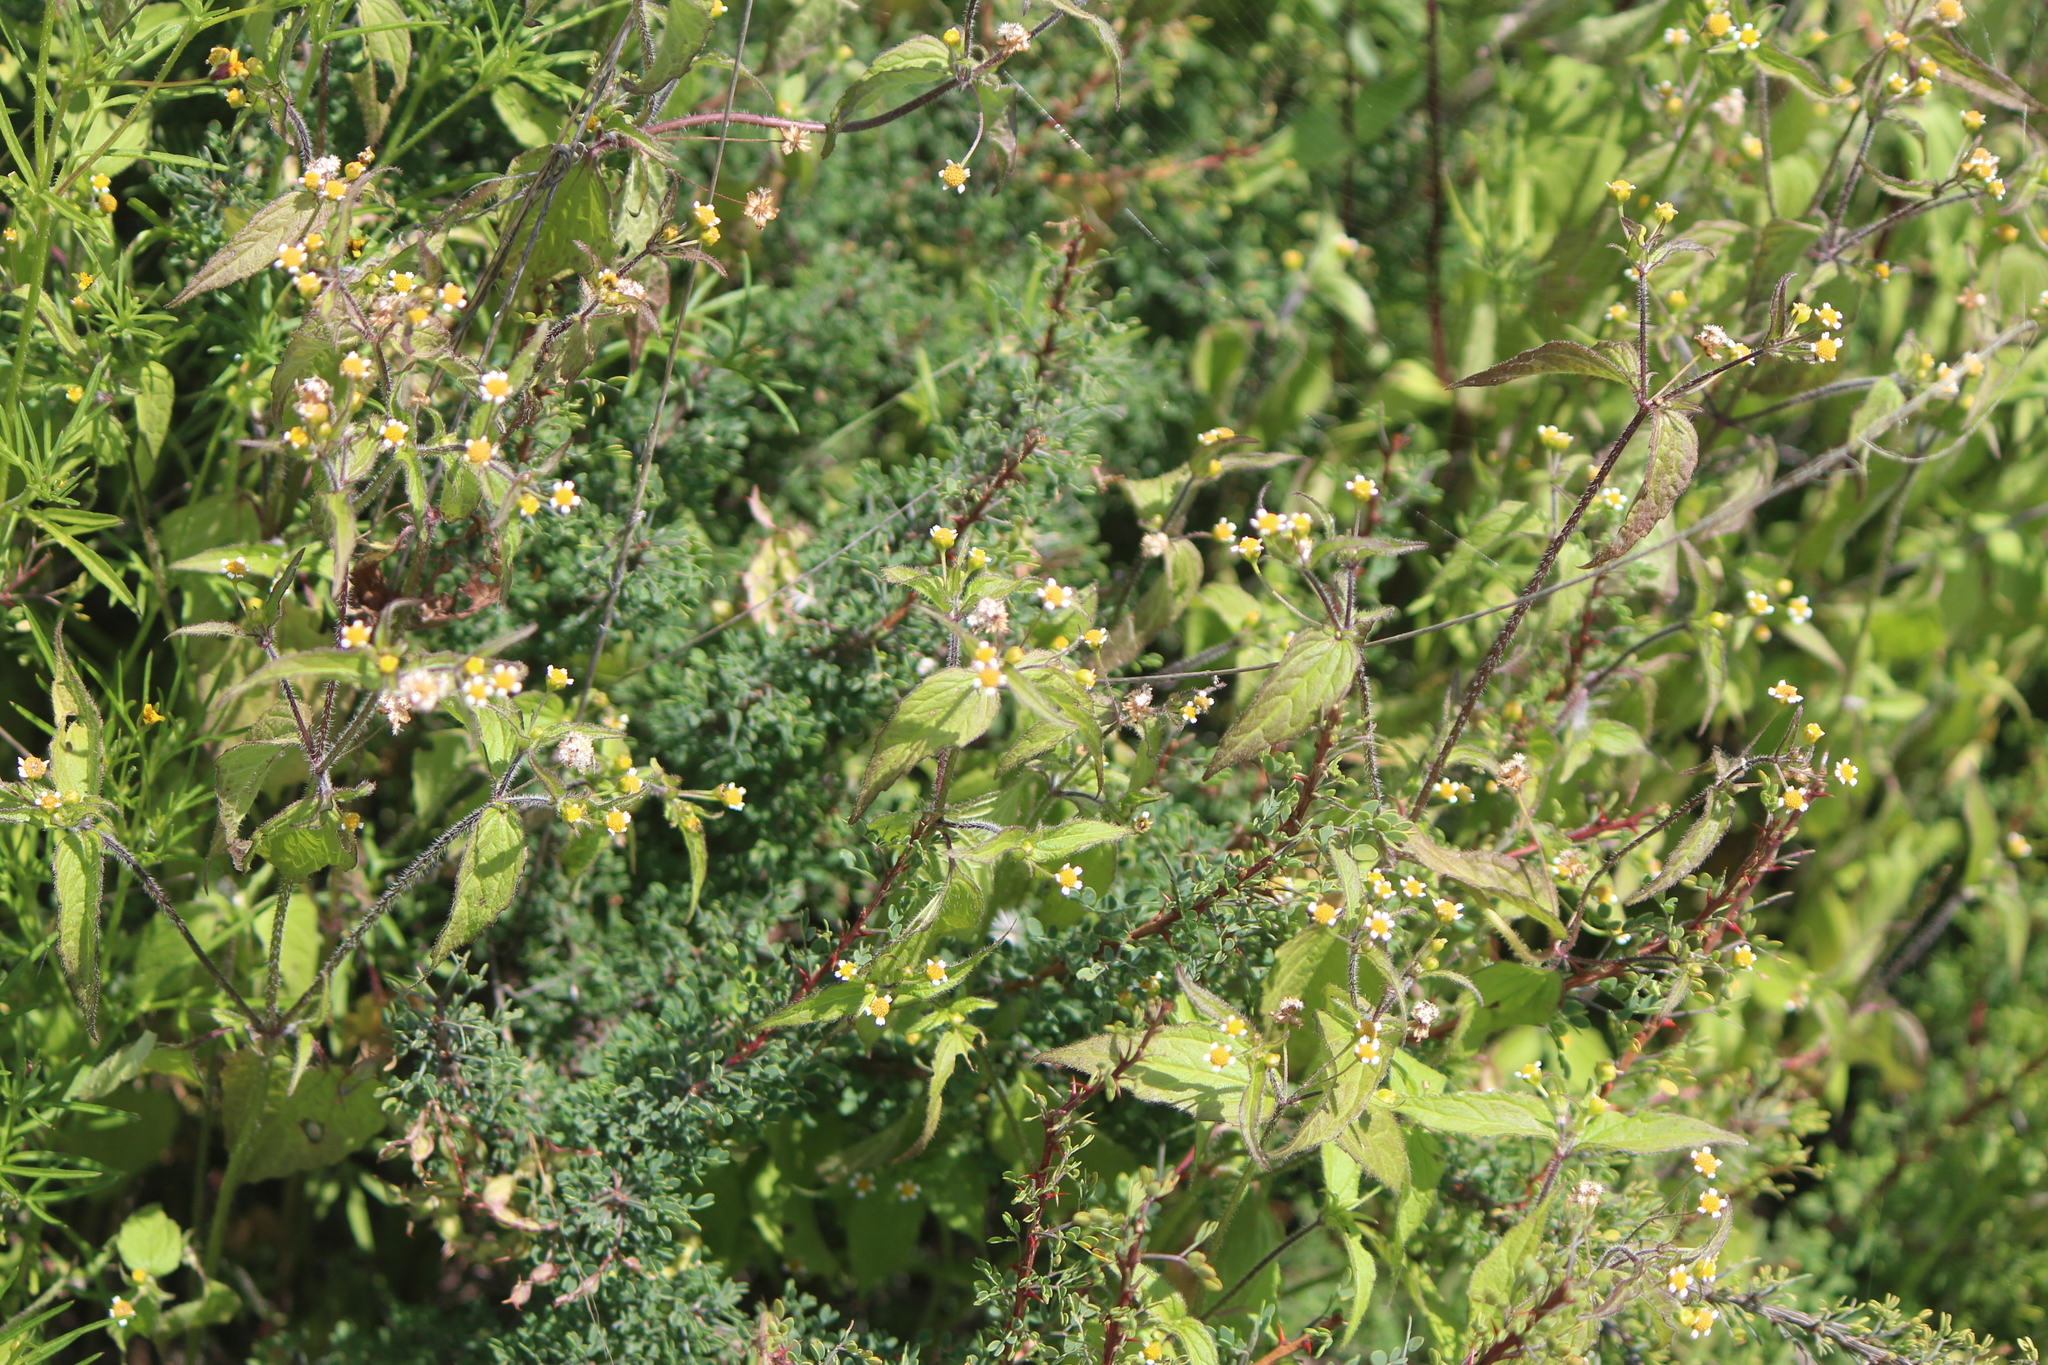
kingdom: Plantae
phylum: Tracheophyta
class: Magnoliopsida
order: Asterales
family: Asteraceae
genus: Galinsoga
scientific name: Galinsoga parviflora
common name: Gallant soldier
